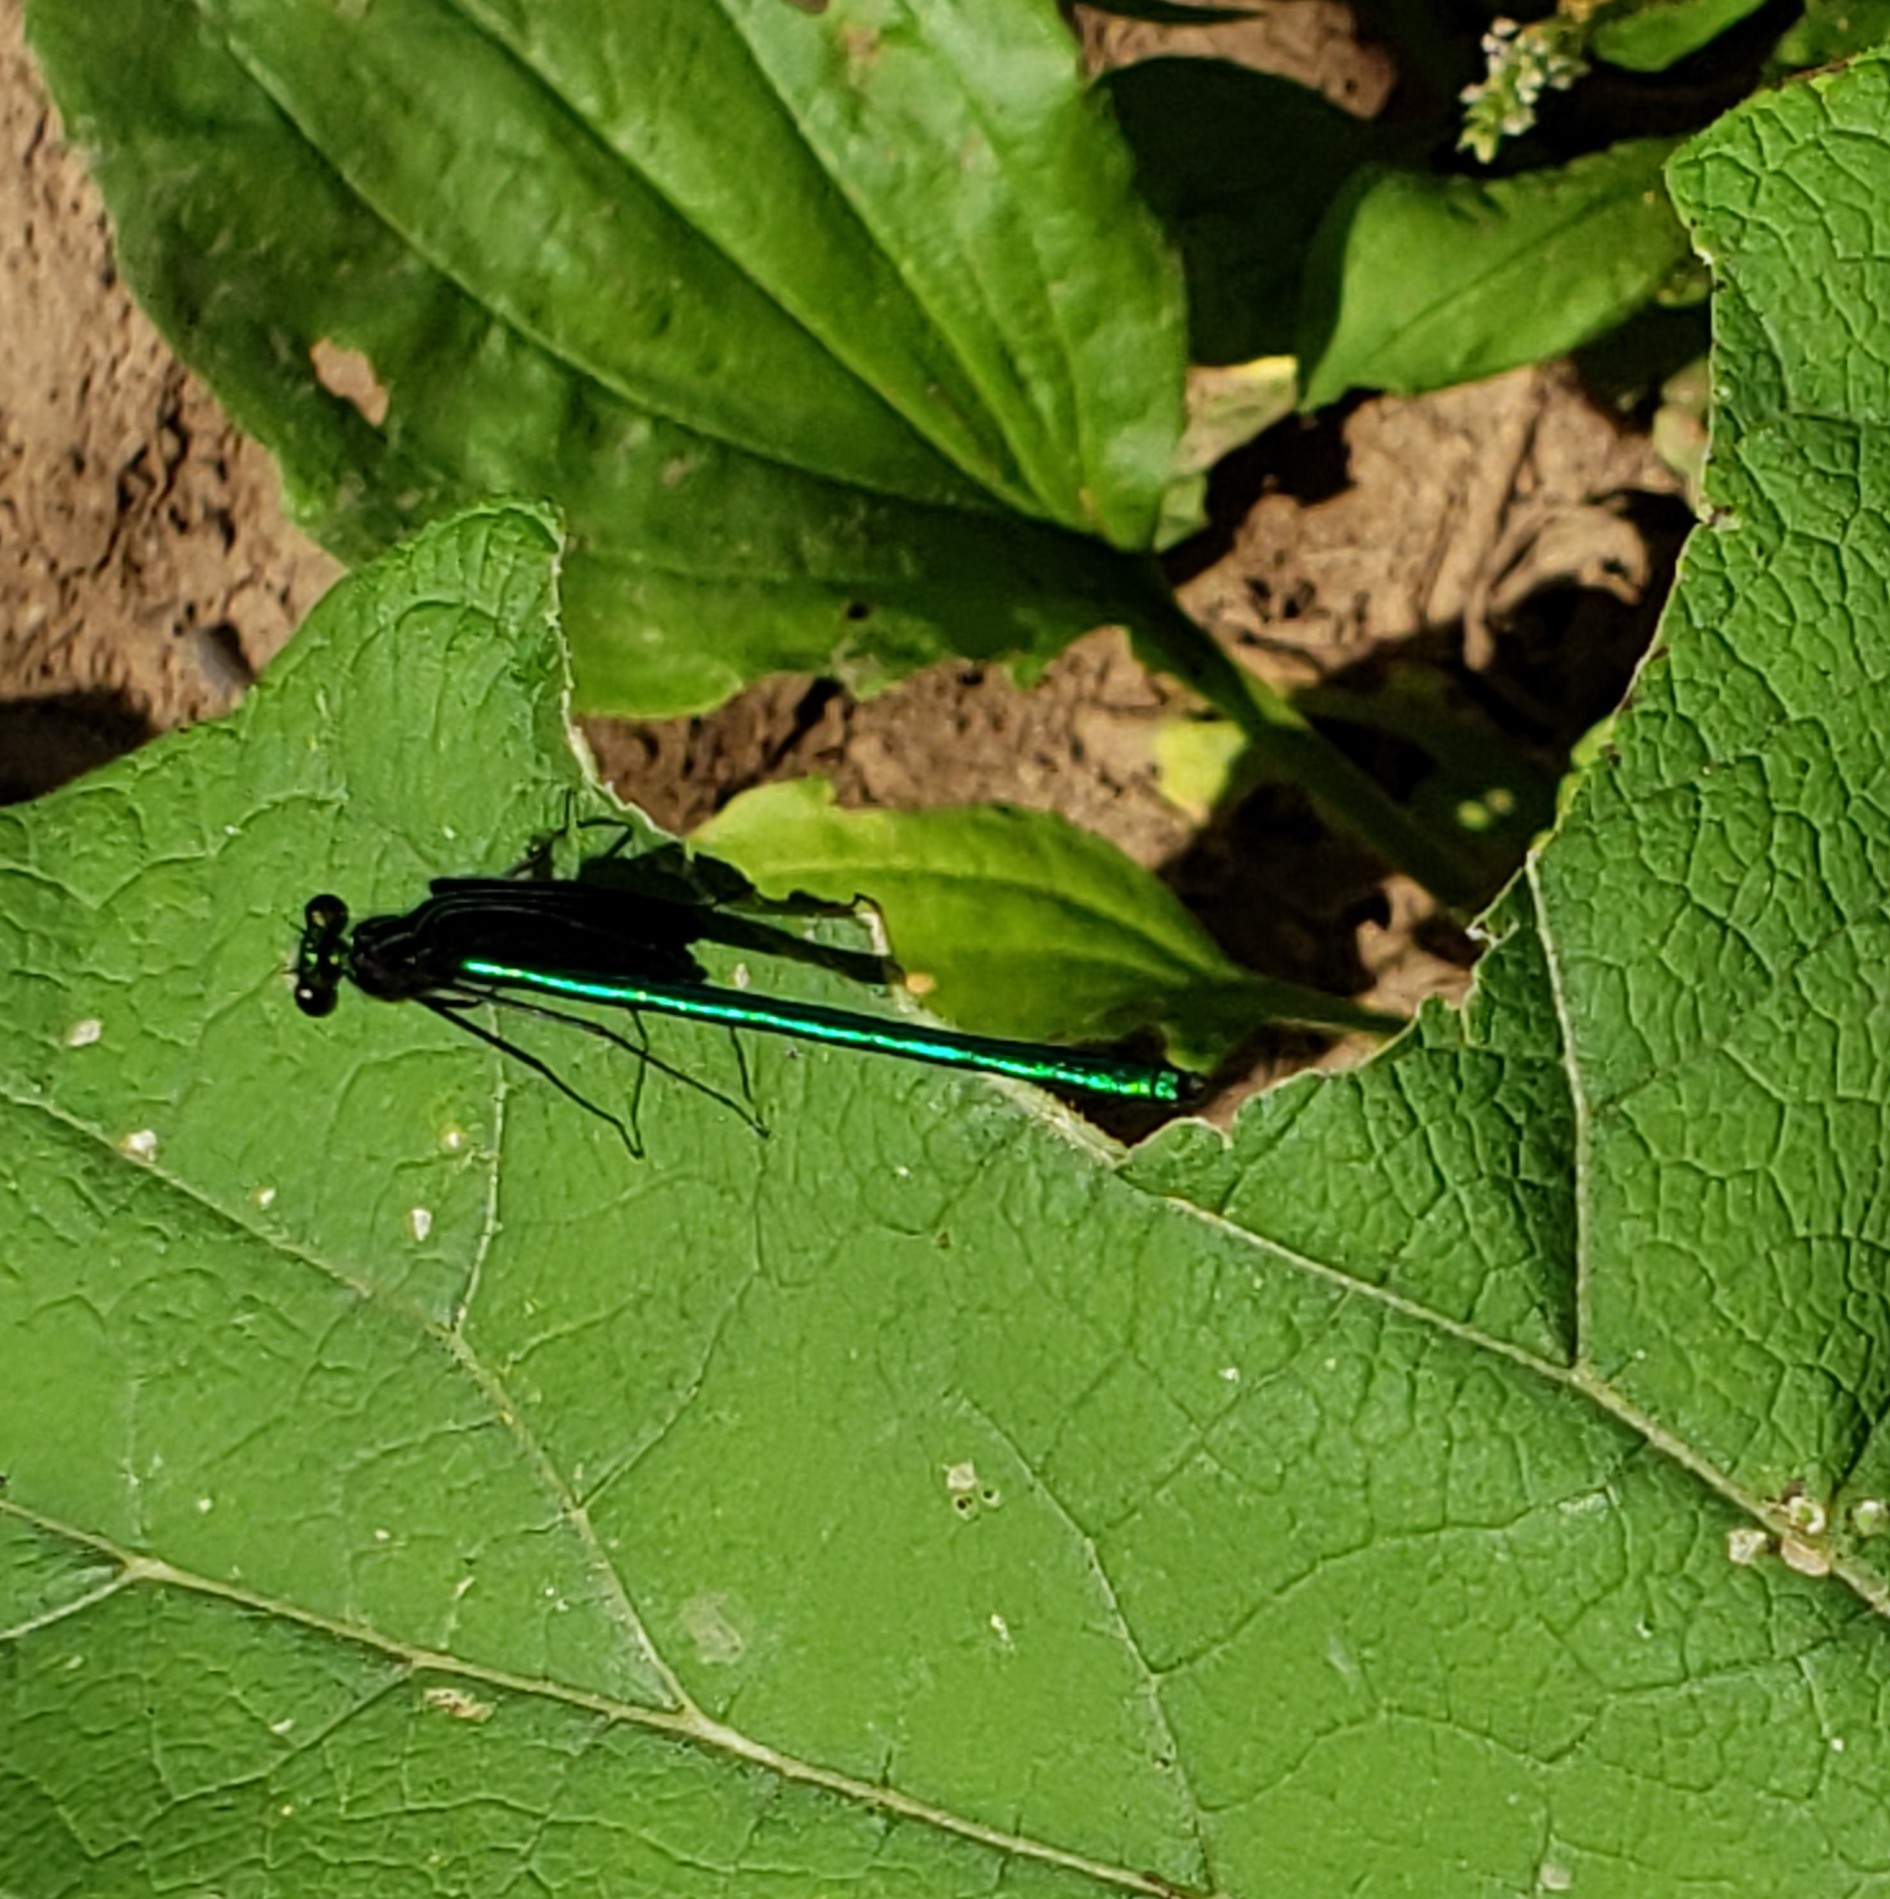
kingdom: Animalia
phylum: Arthropoda
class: Insecta
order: Odonata
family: Calopterygidae
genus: Calopteryx
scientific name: Calopteryx maculata
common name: Ebony jewelwing
